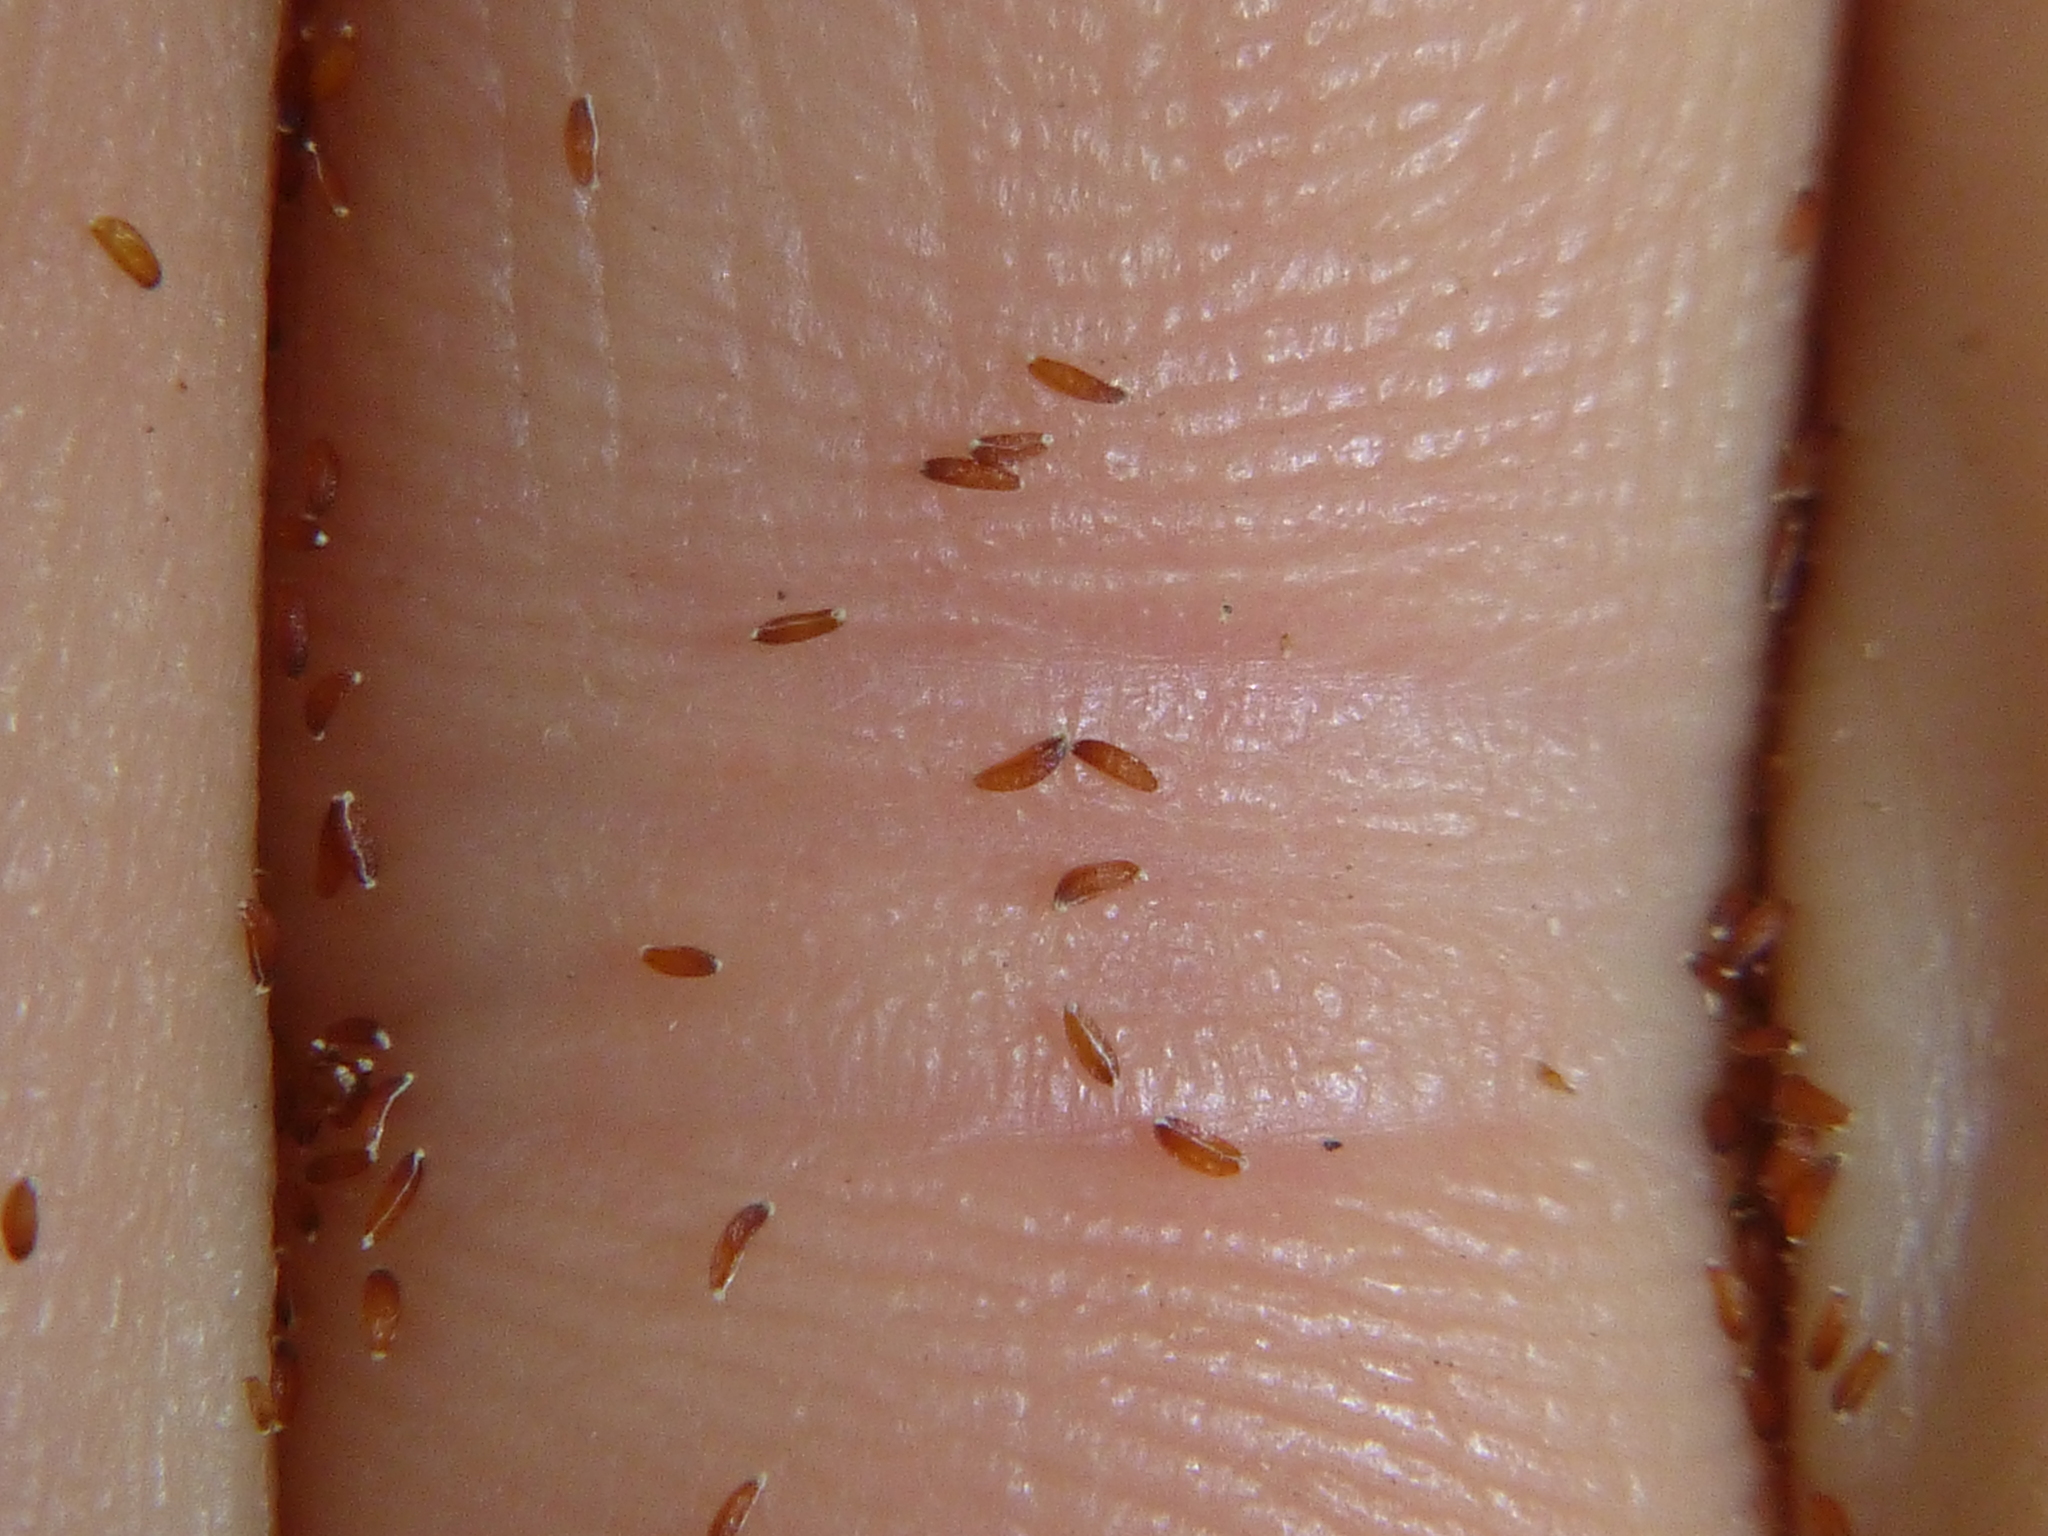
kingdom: Plantae
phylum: Tracheophyta
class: Liliopsida
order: Alismatales
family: Tofieldiaceae
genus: Tofieldia
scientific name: Tofieldia calyculata
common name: German-asphodel
